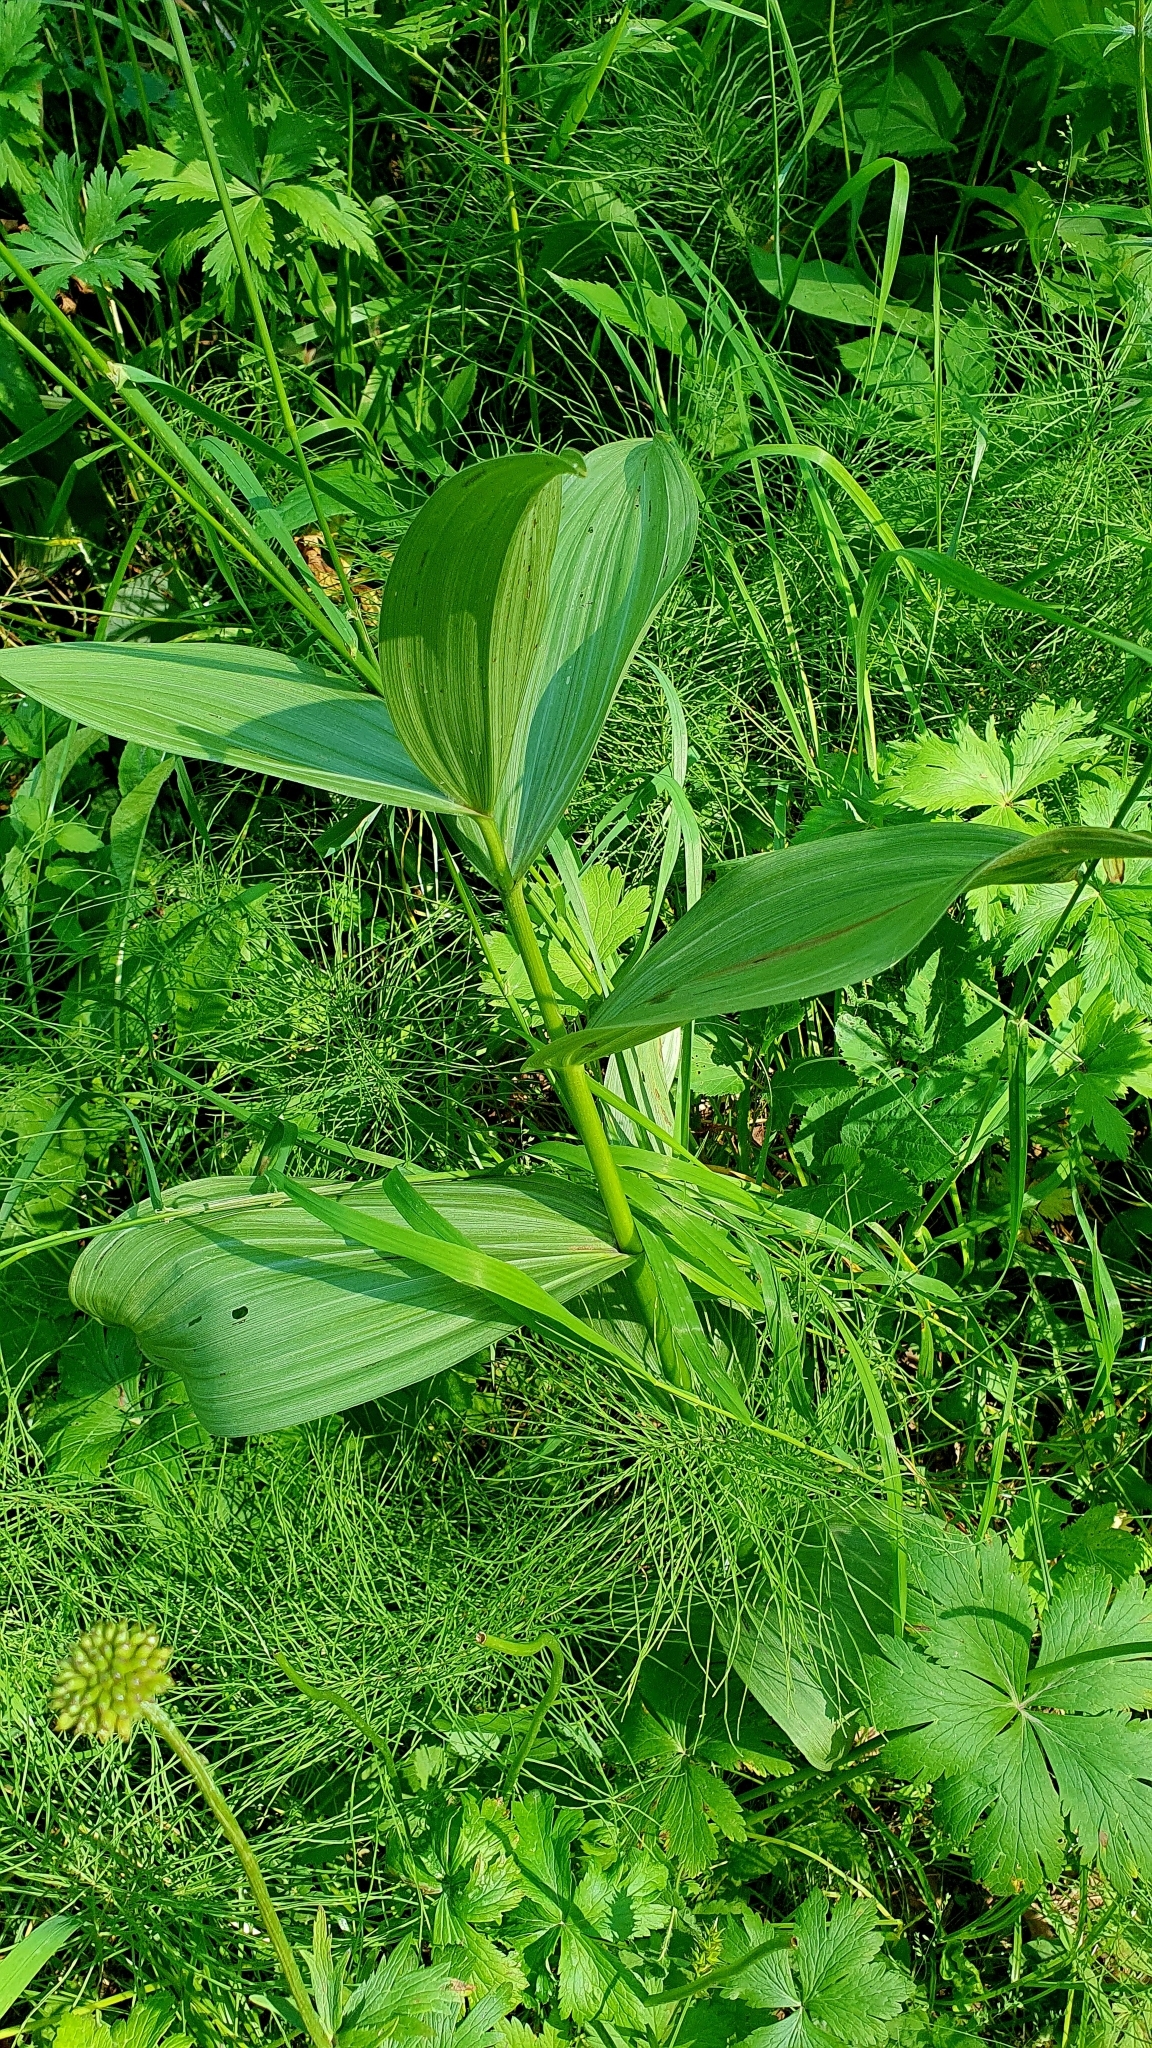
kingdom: Plantae
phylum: Tracheophyta
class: Liliopsida
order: Liliales
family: Melanthiaceae
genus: Veratrum
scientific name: Veratrum lobelianum
